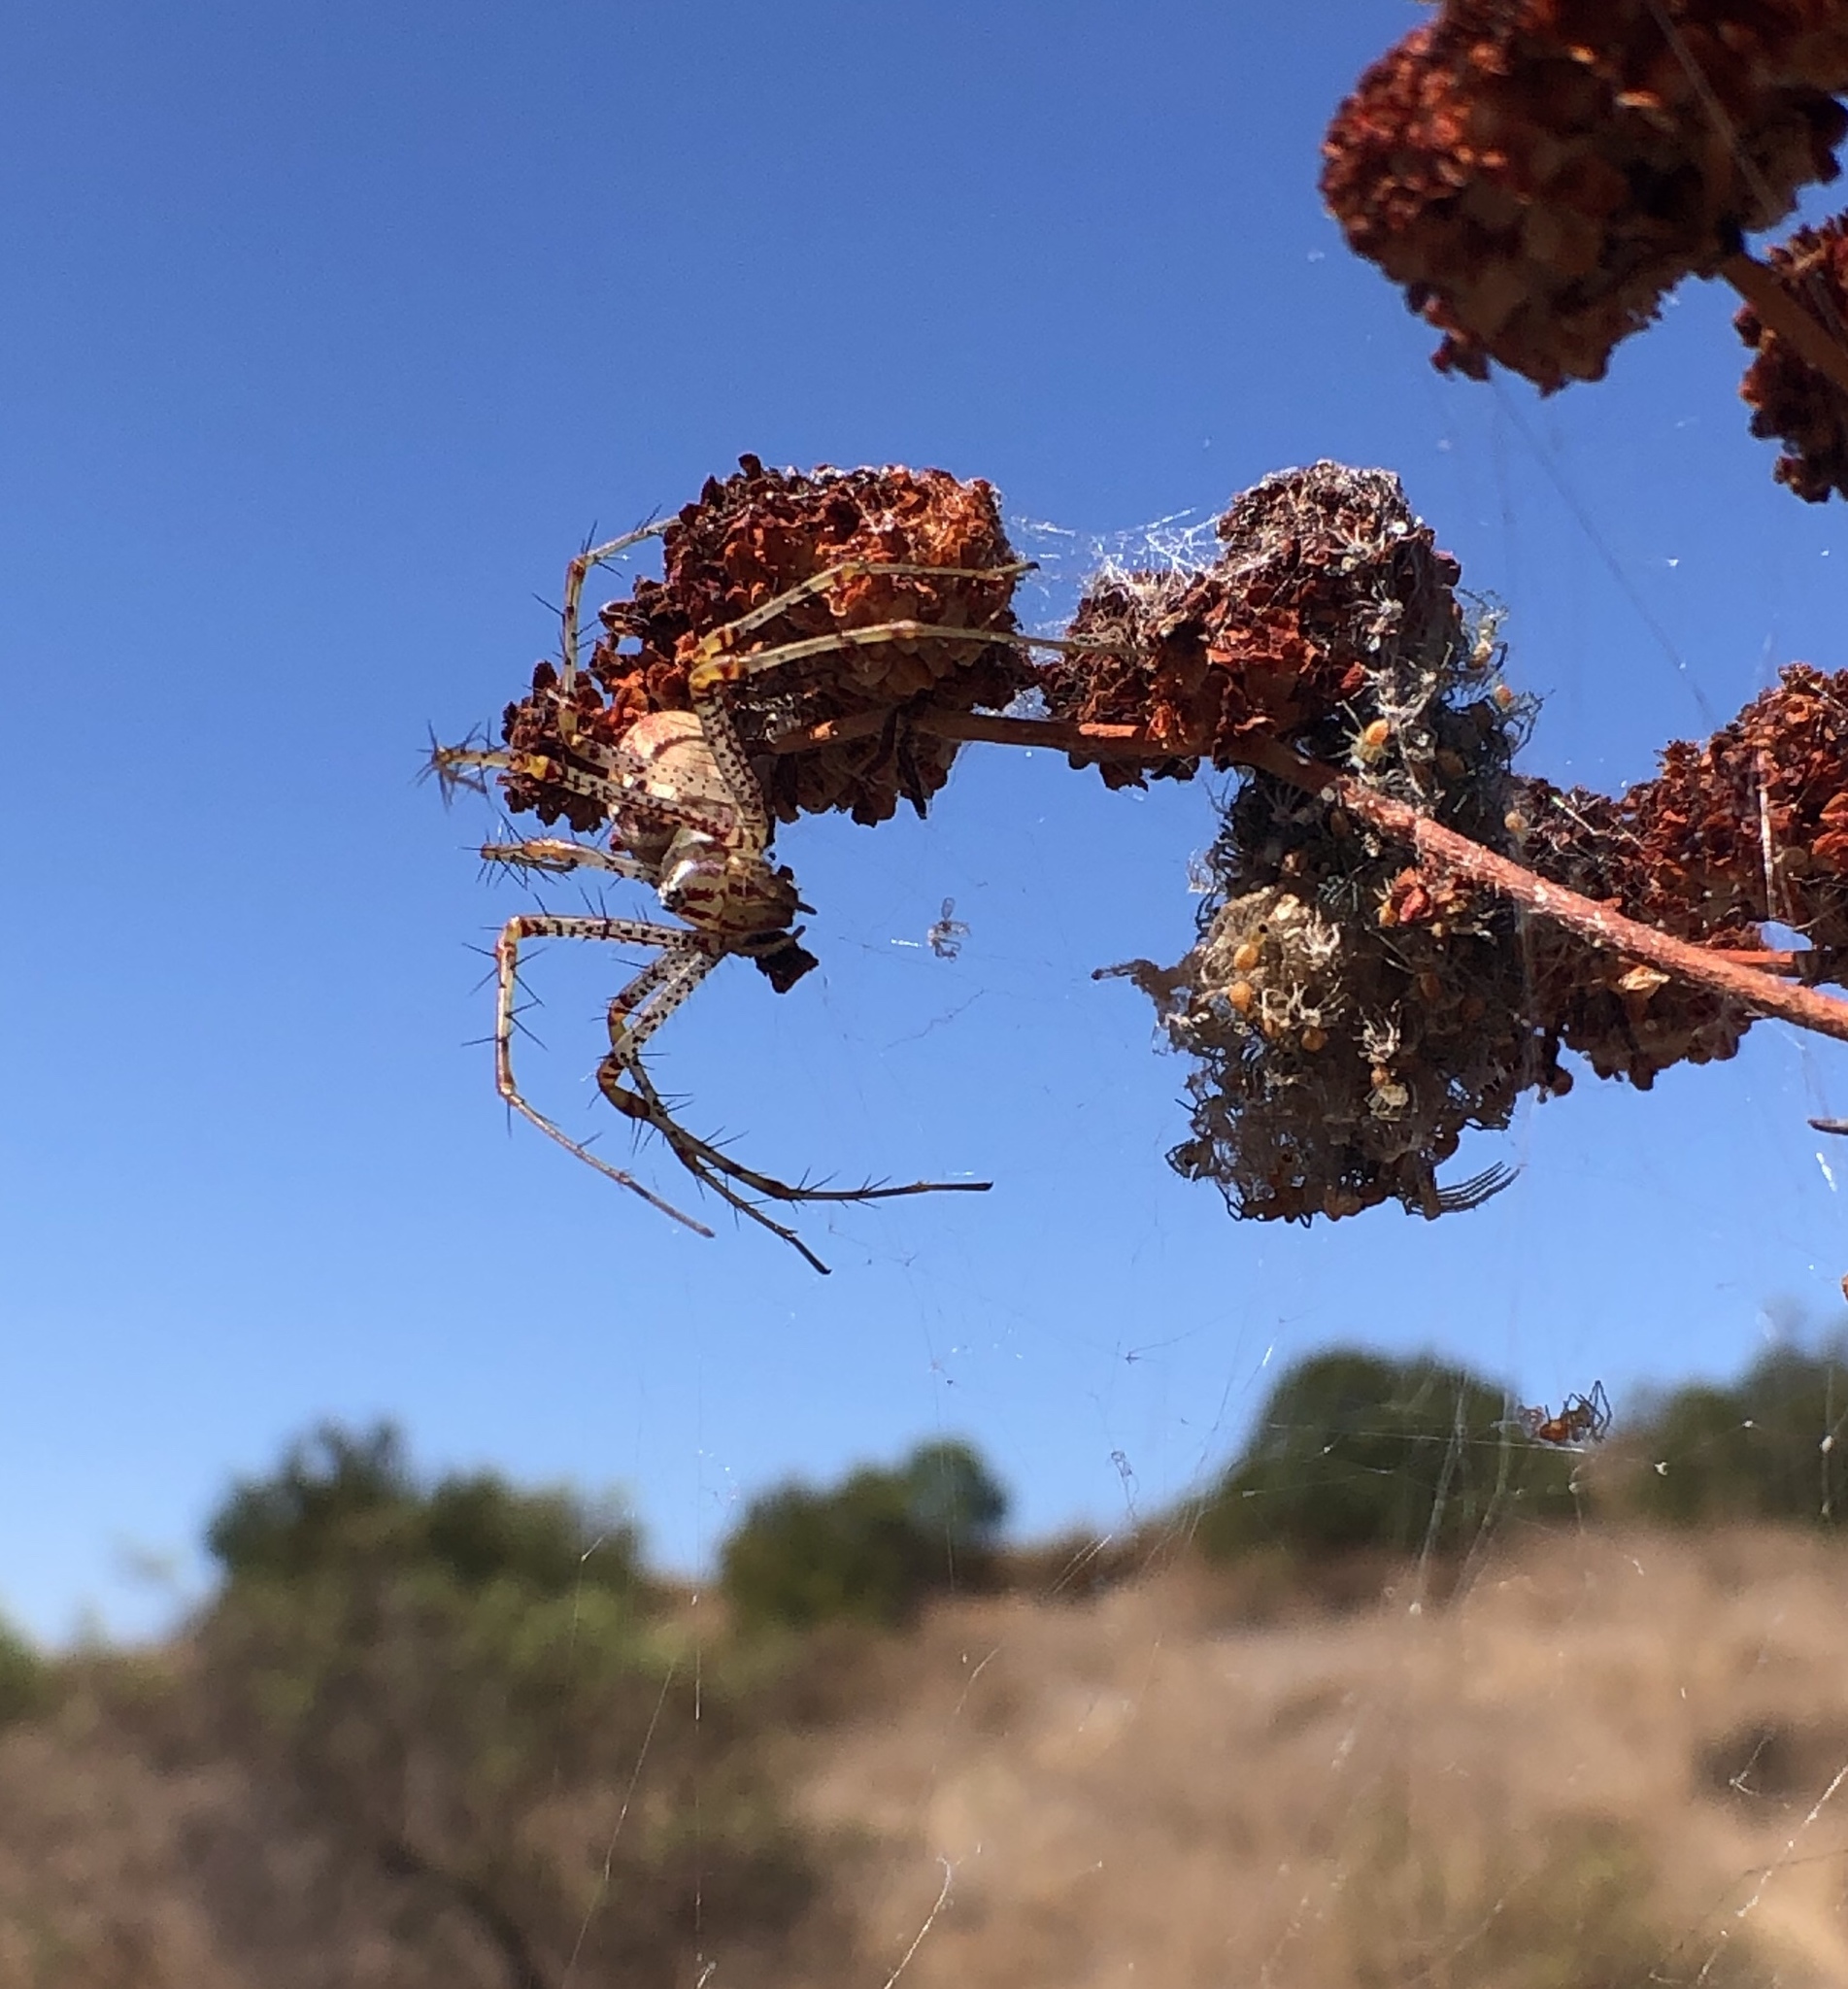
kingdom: Animalia
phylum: Arthropoda
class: Arachnida
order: Araneae
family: Oxyopidae
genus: Peucetia
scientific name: Peucetia viridans
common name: Lynx spiders
